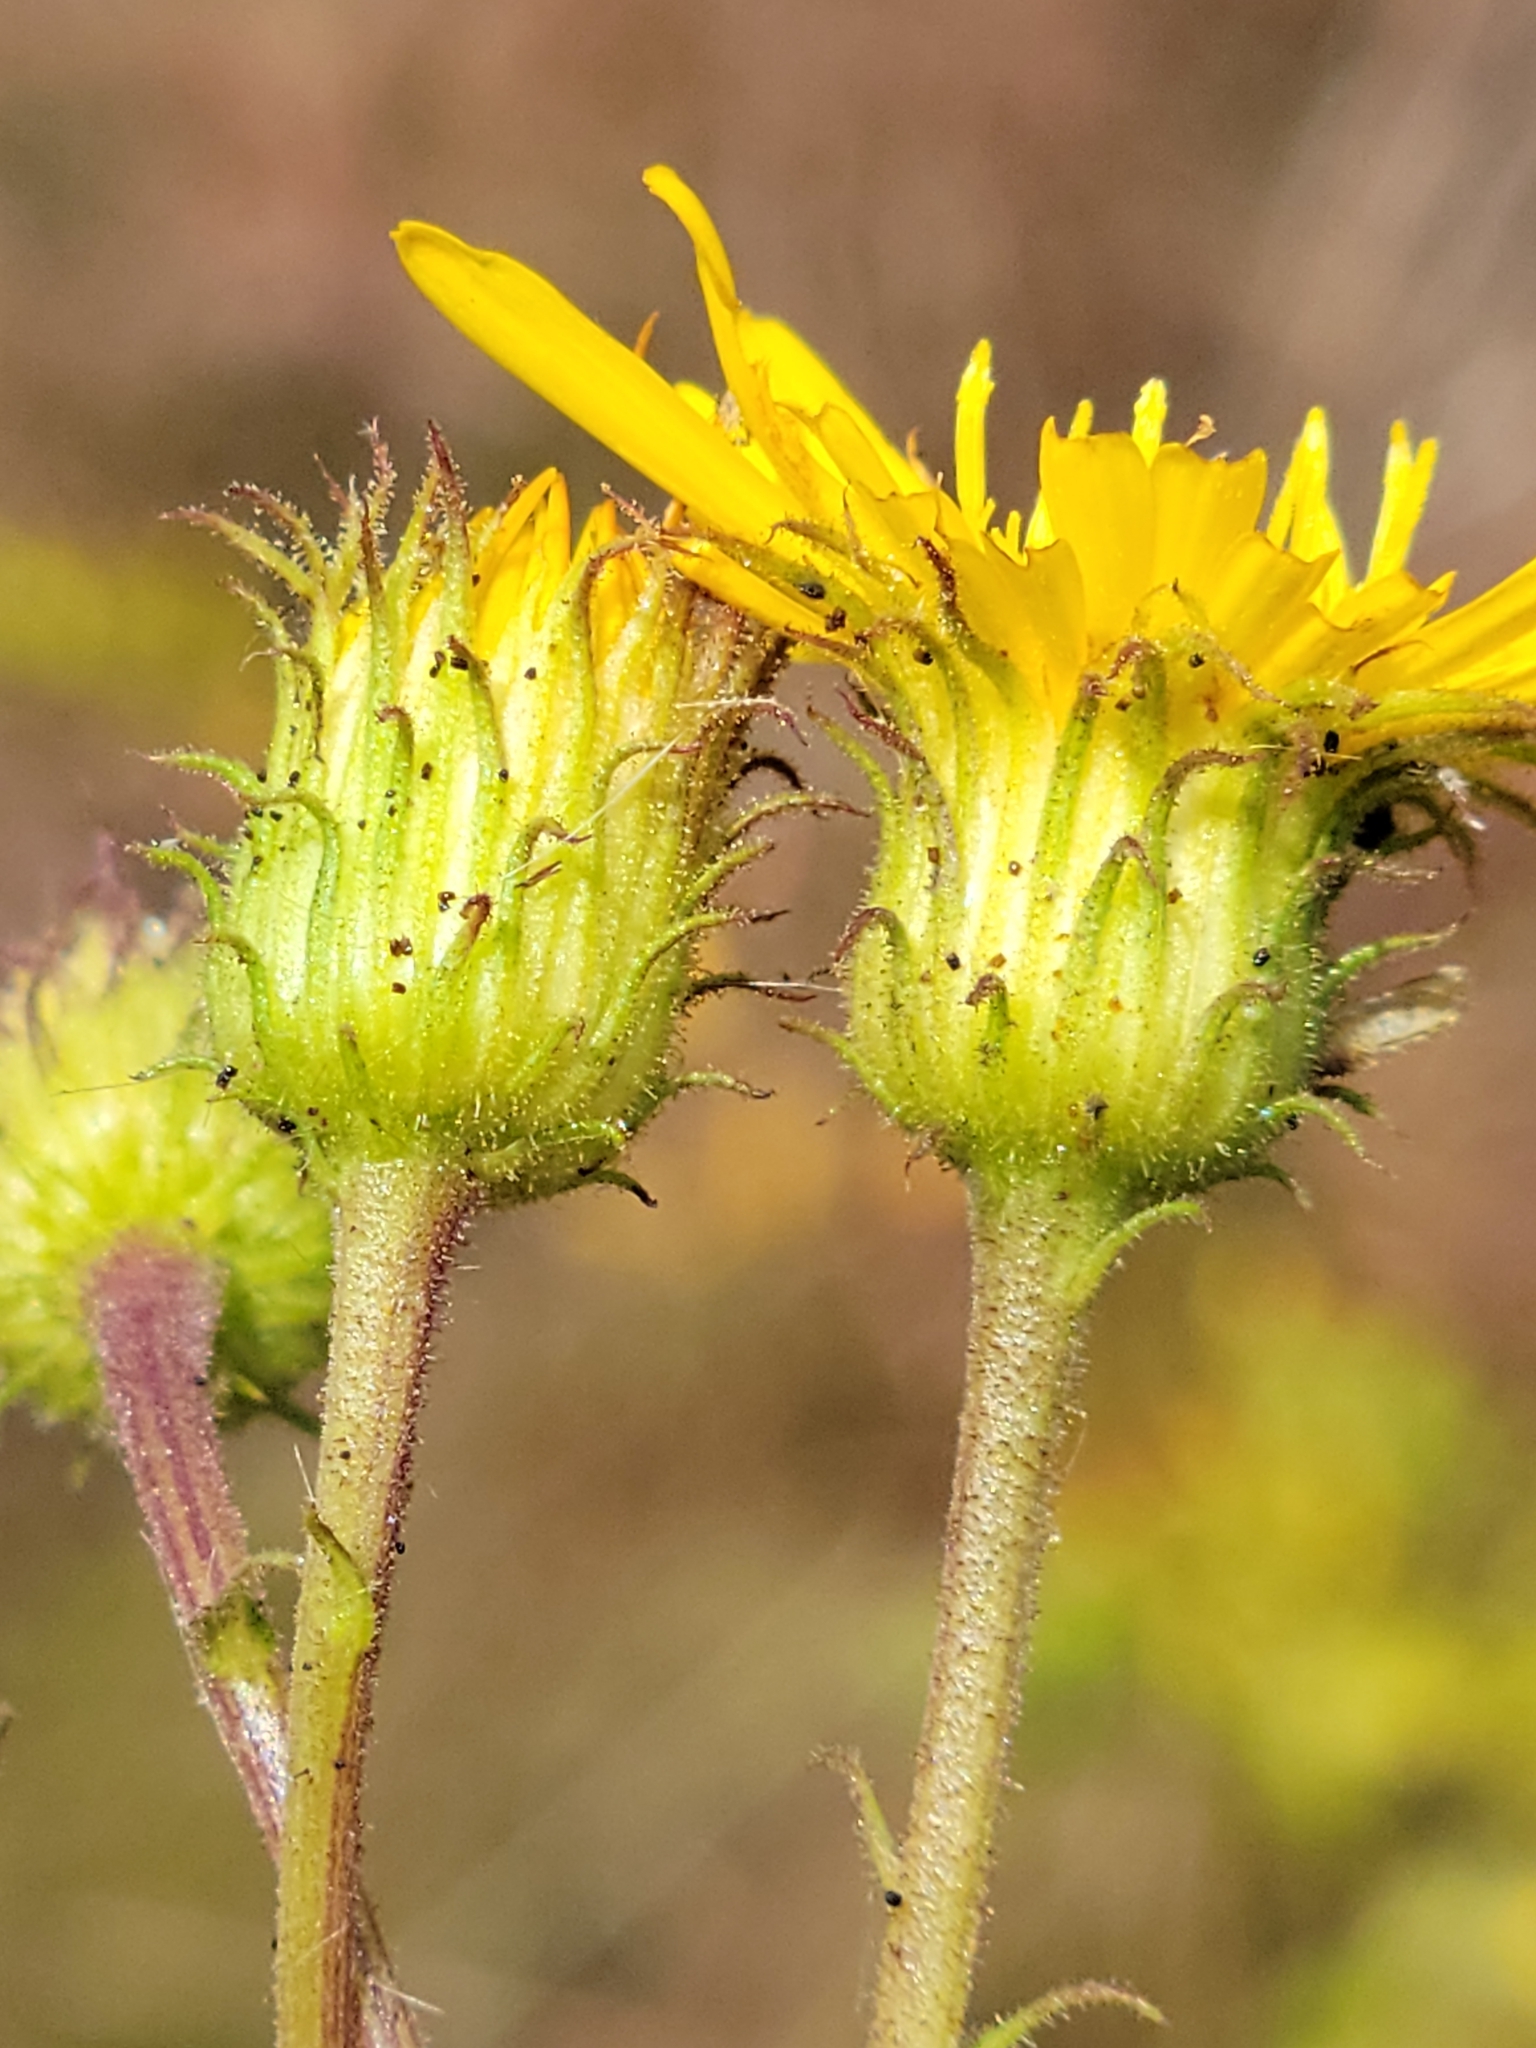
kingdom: Plantae
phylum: Tracheophyta
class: Magnoliopsida
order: Asterales
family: Asteraceae
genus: Chrysopsis
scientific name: Chrysopsis lanuginosa
